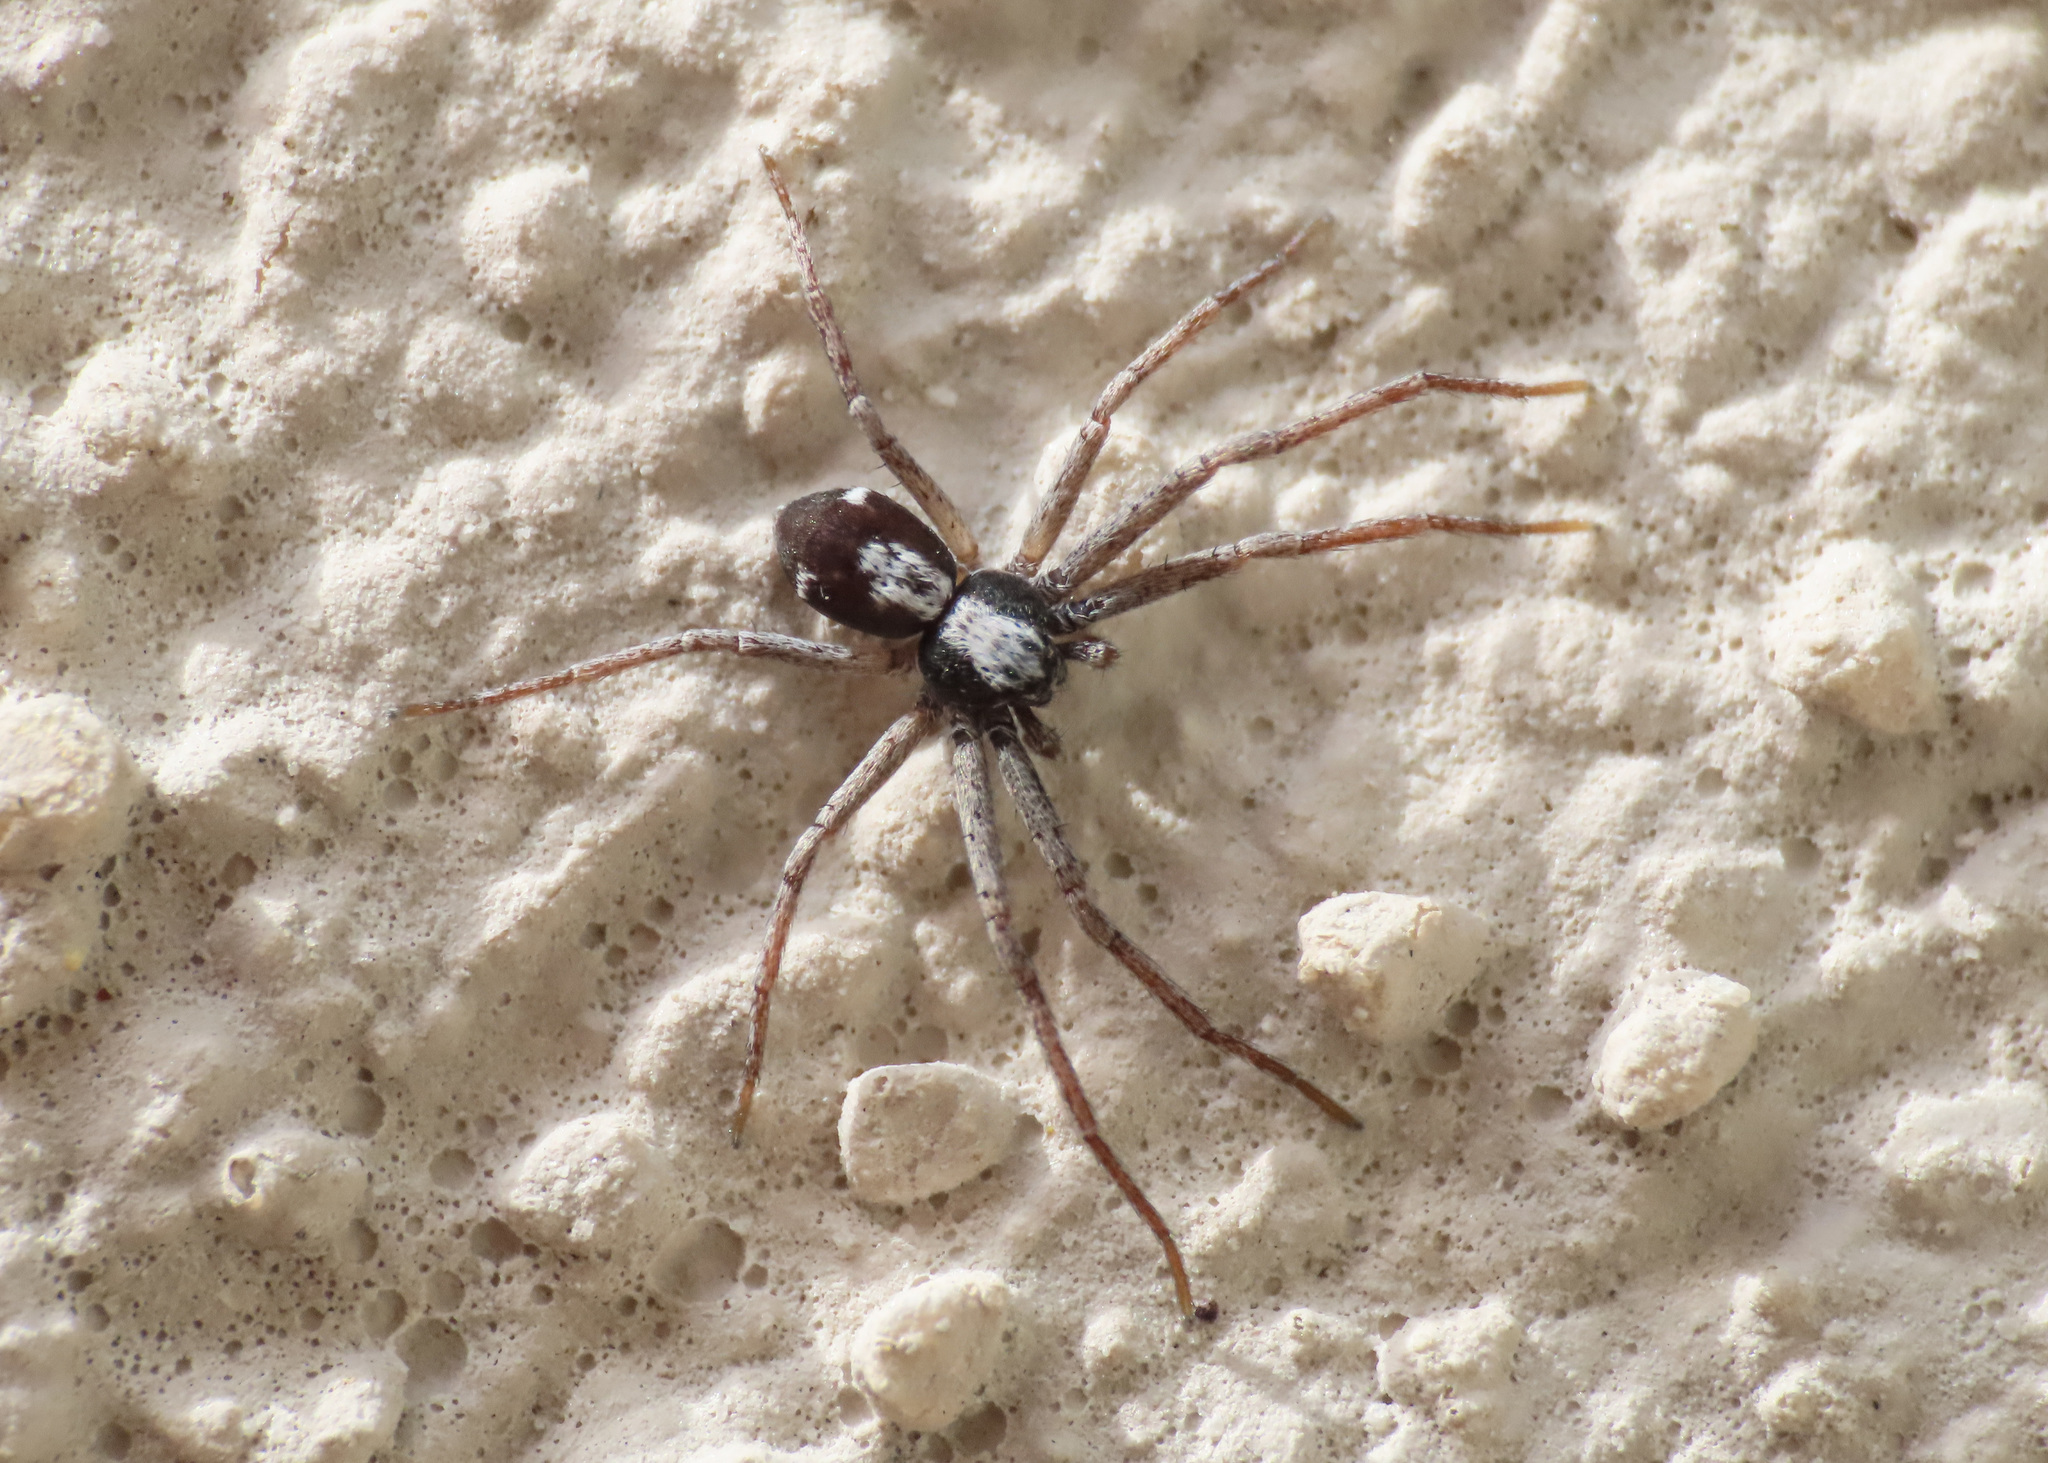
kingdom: Animalia
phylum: Arthropoda
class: Arachnida
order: Araneae
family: Philodromidae
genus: Pulchellodromus
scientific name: Pulchellodromus pulchellus
